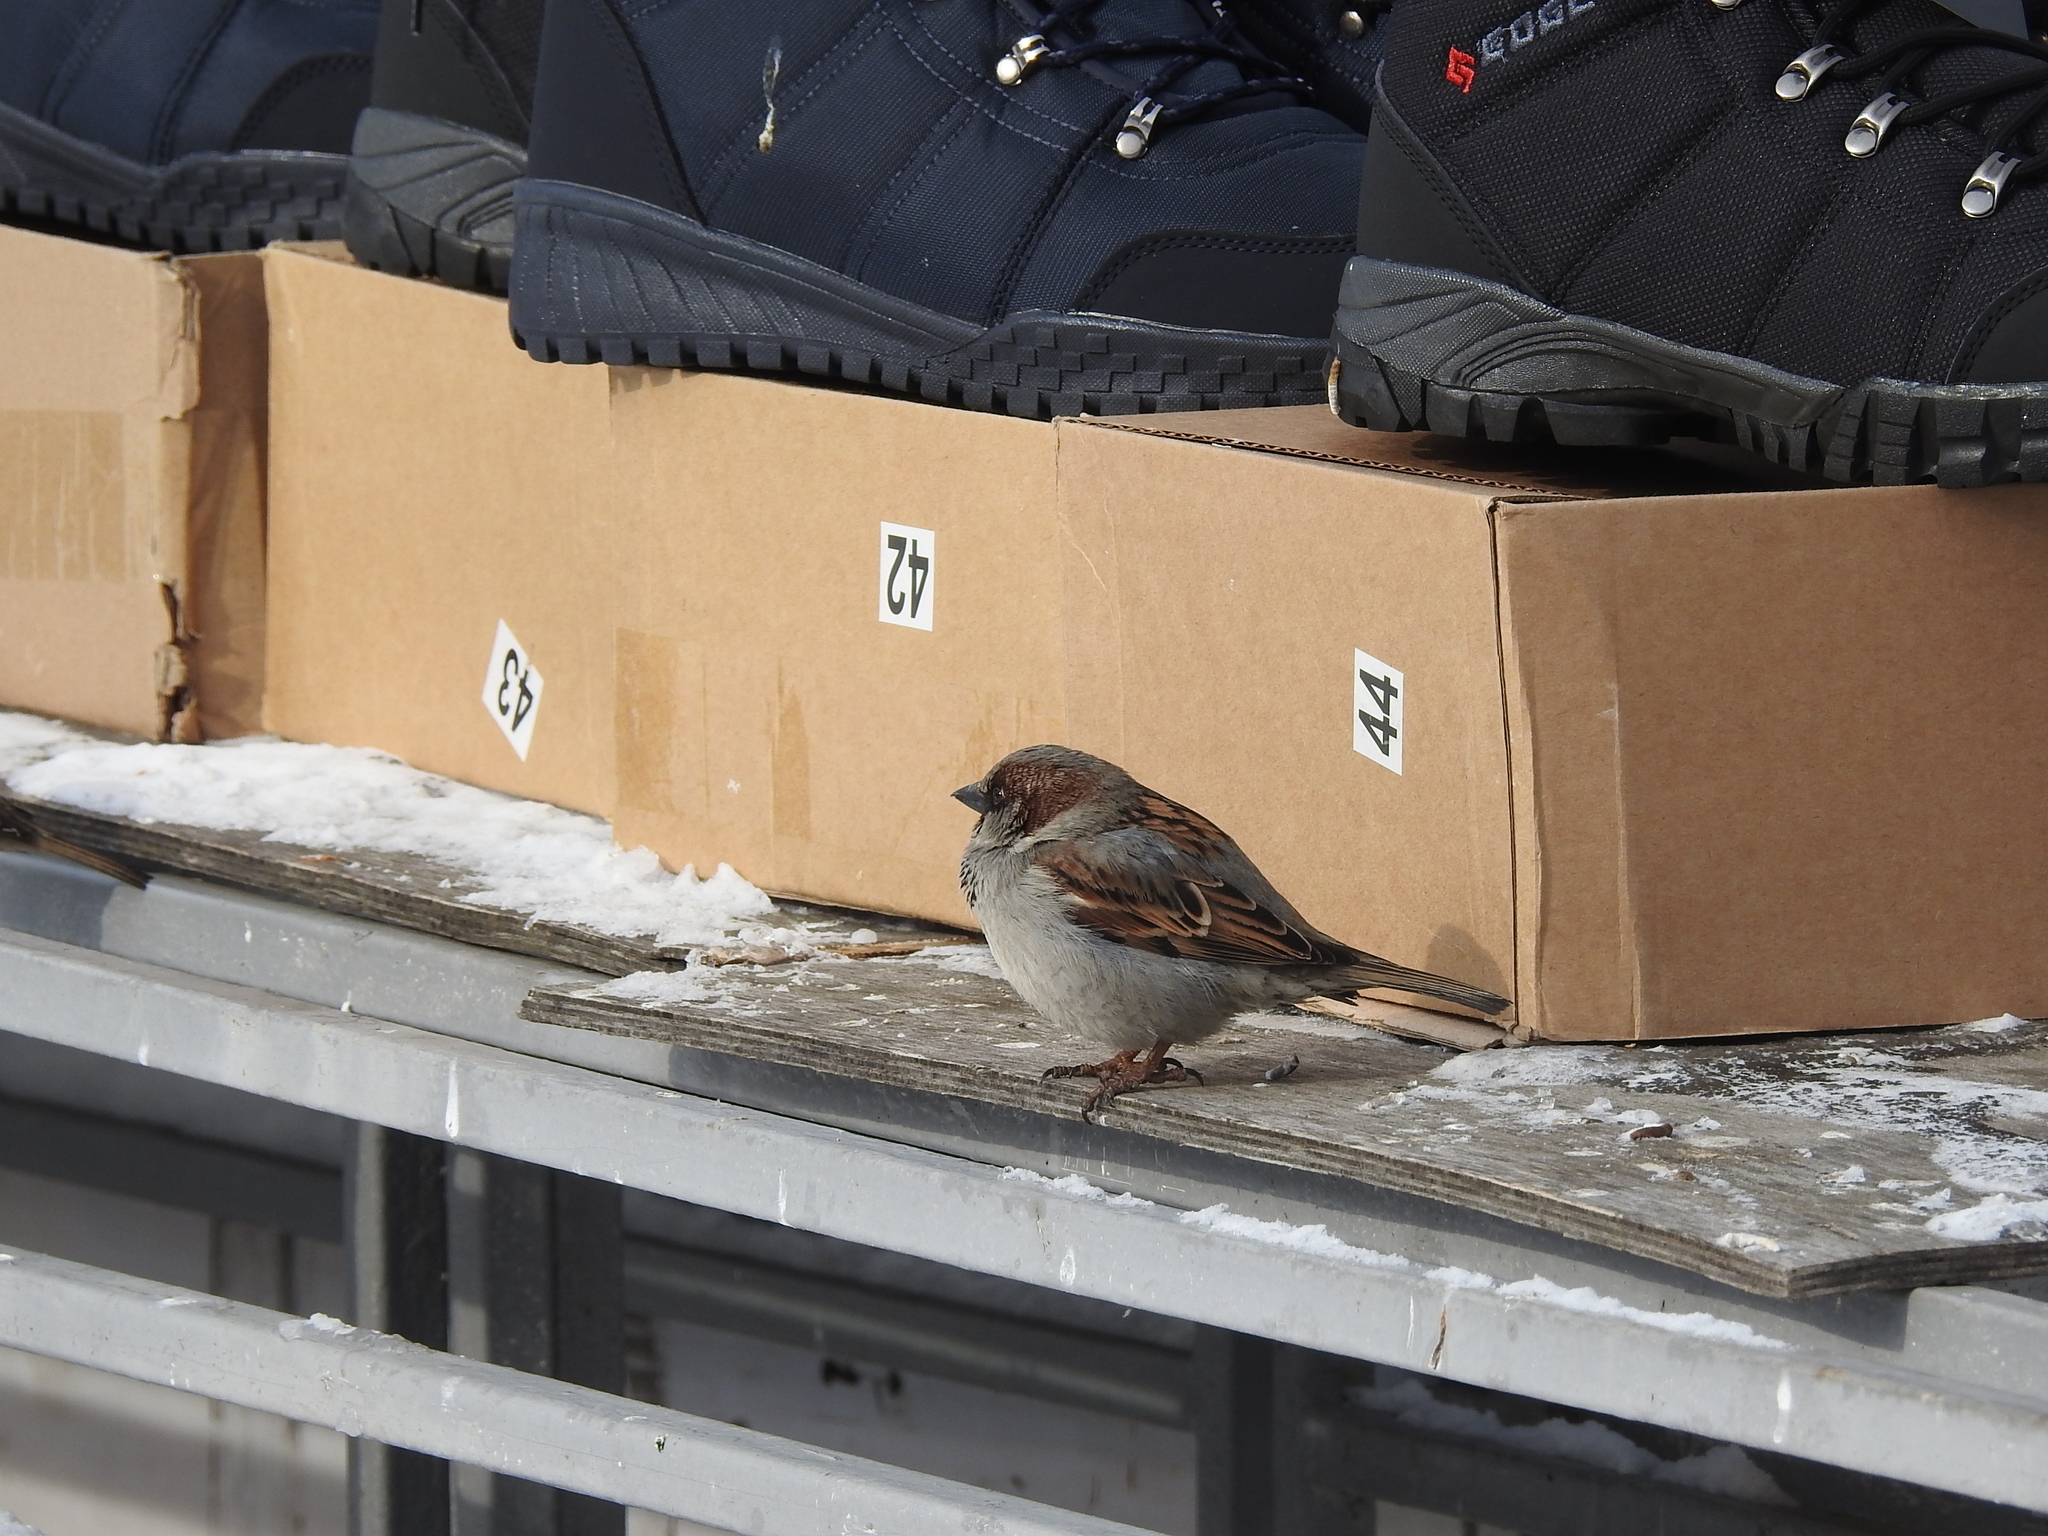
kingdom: Animalia
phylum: Chordata
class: Aves
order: Passeriformes
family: Passeridae
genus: Passer
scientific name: Passer domesticus
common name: House sparrow
